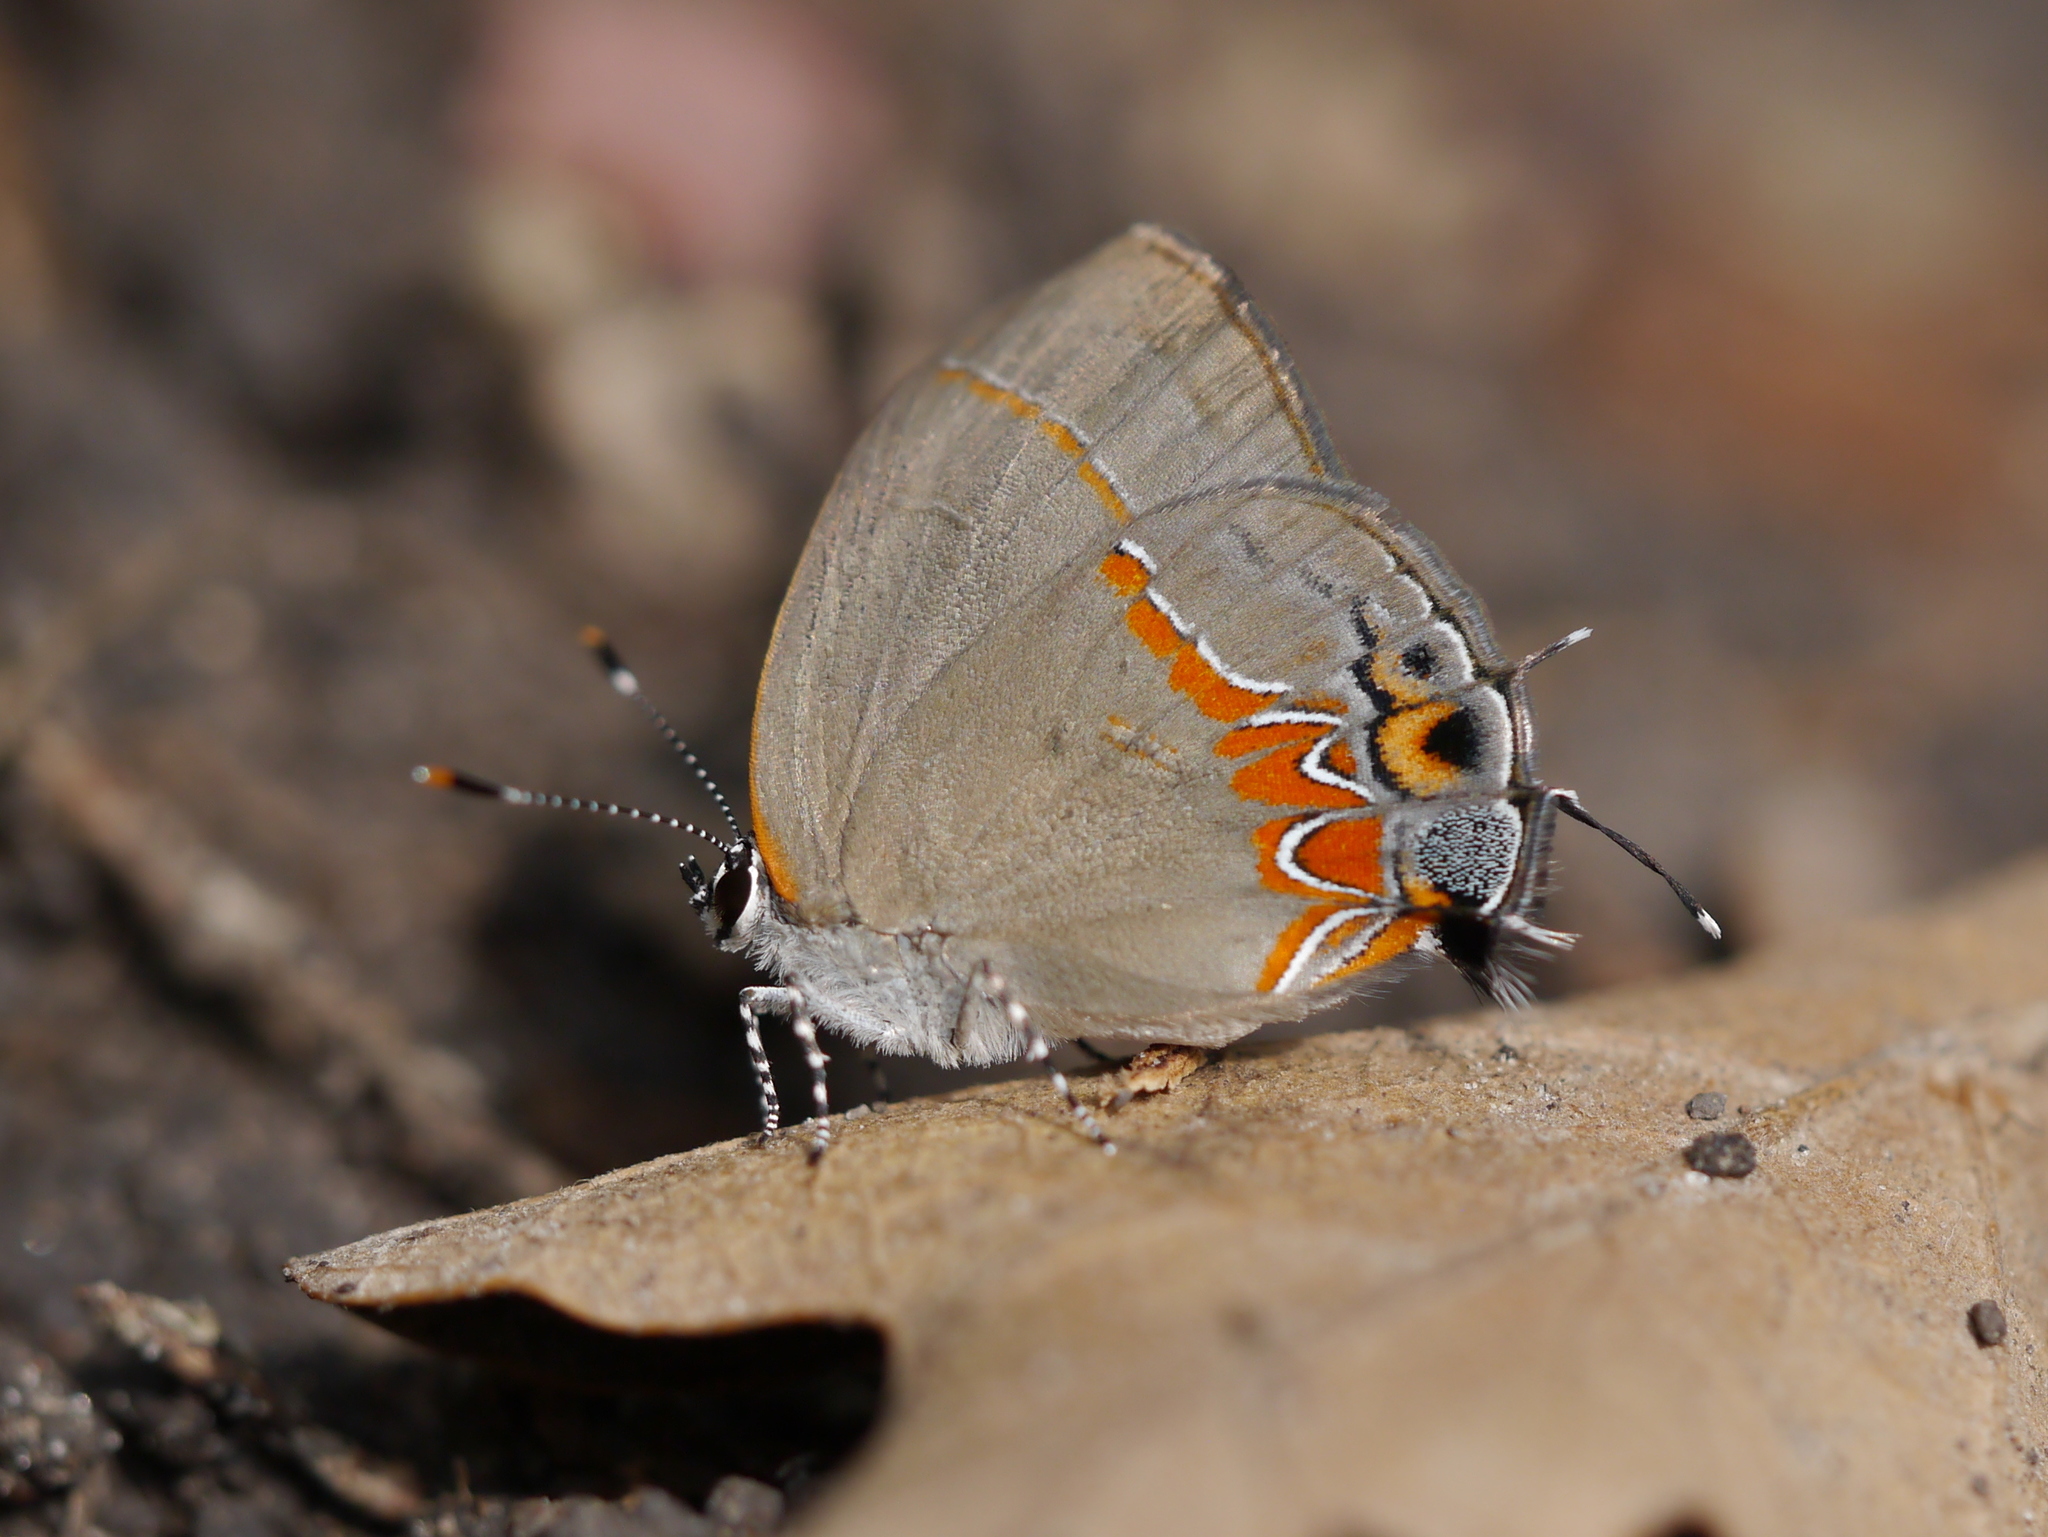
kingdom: Animalia
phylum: Arthropoda
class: Insecta
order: Lepidoptera
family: Lycaenidae
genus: Calycopis
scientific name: Calycopis isobeon
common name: Dusky-blue groundstreak
